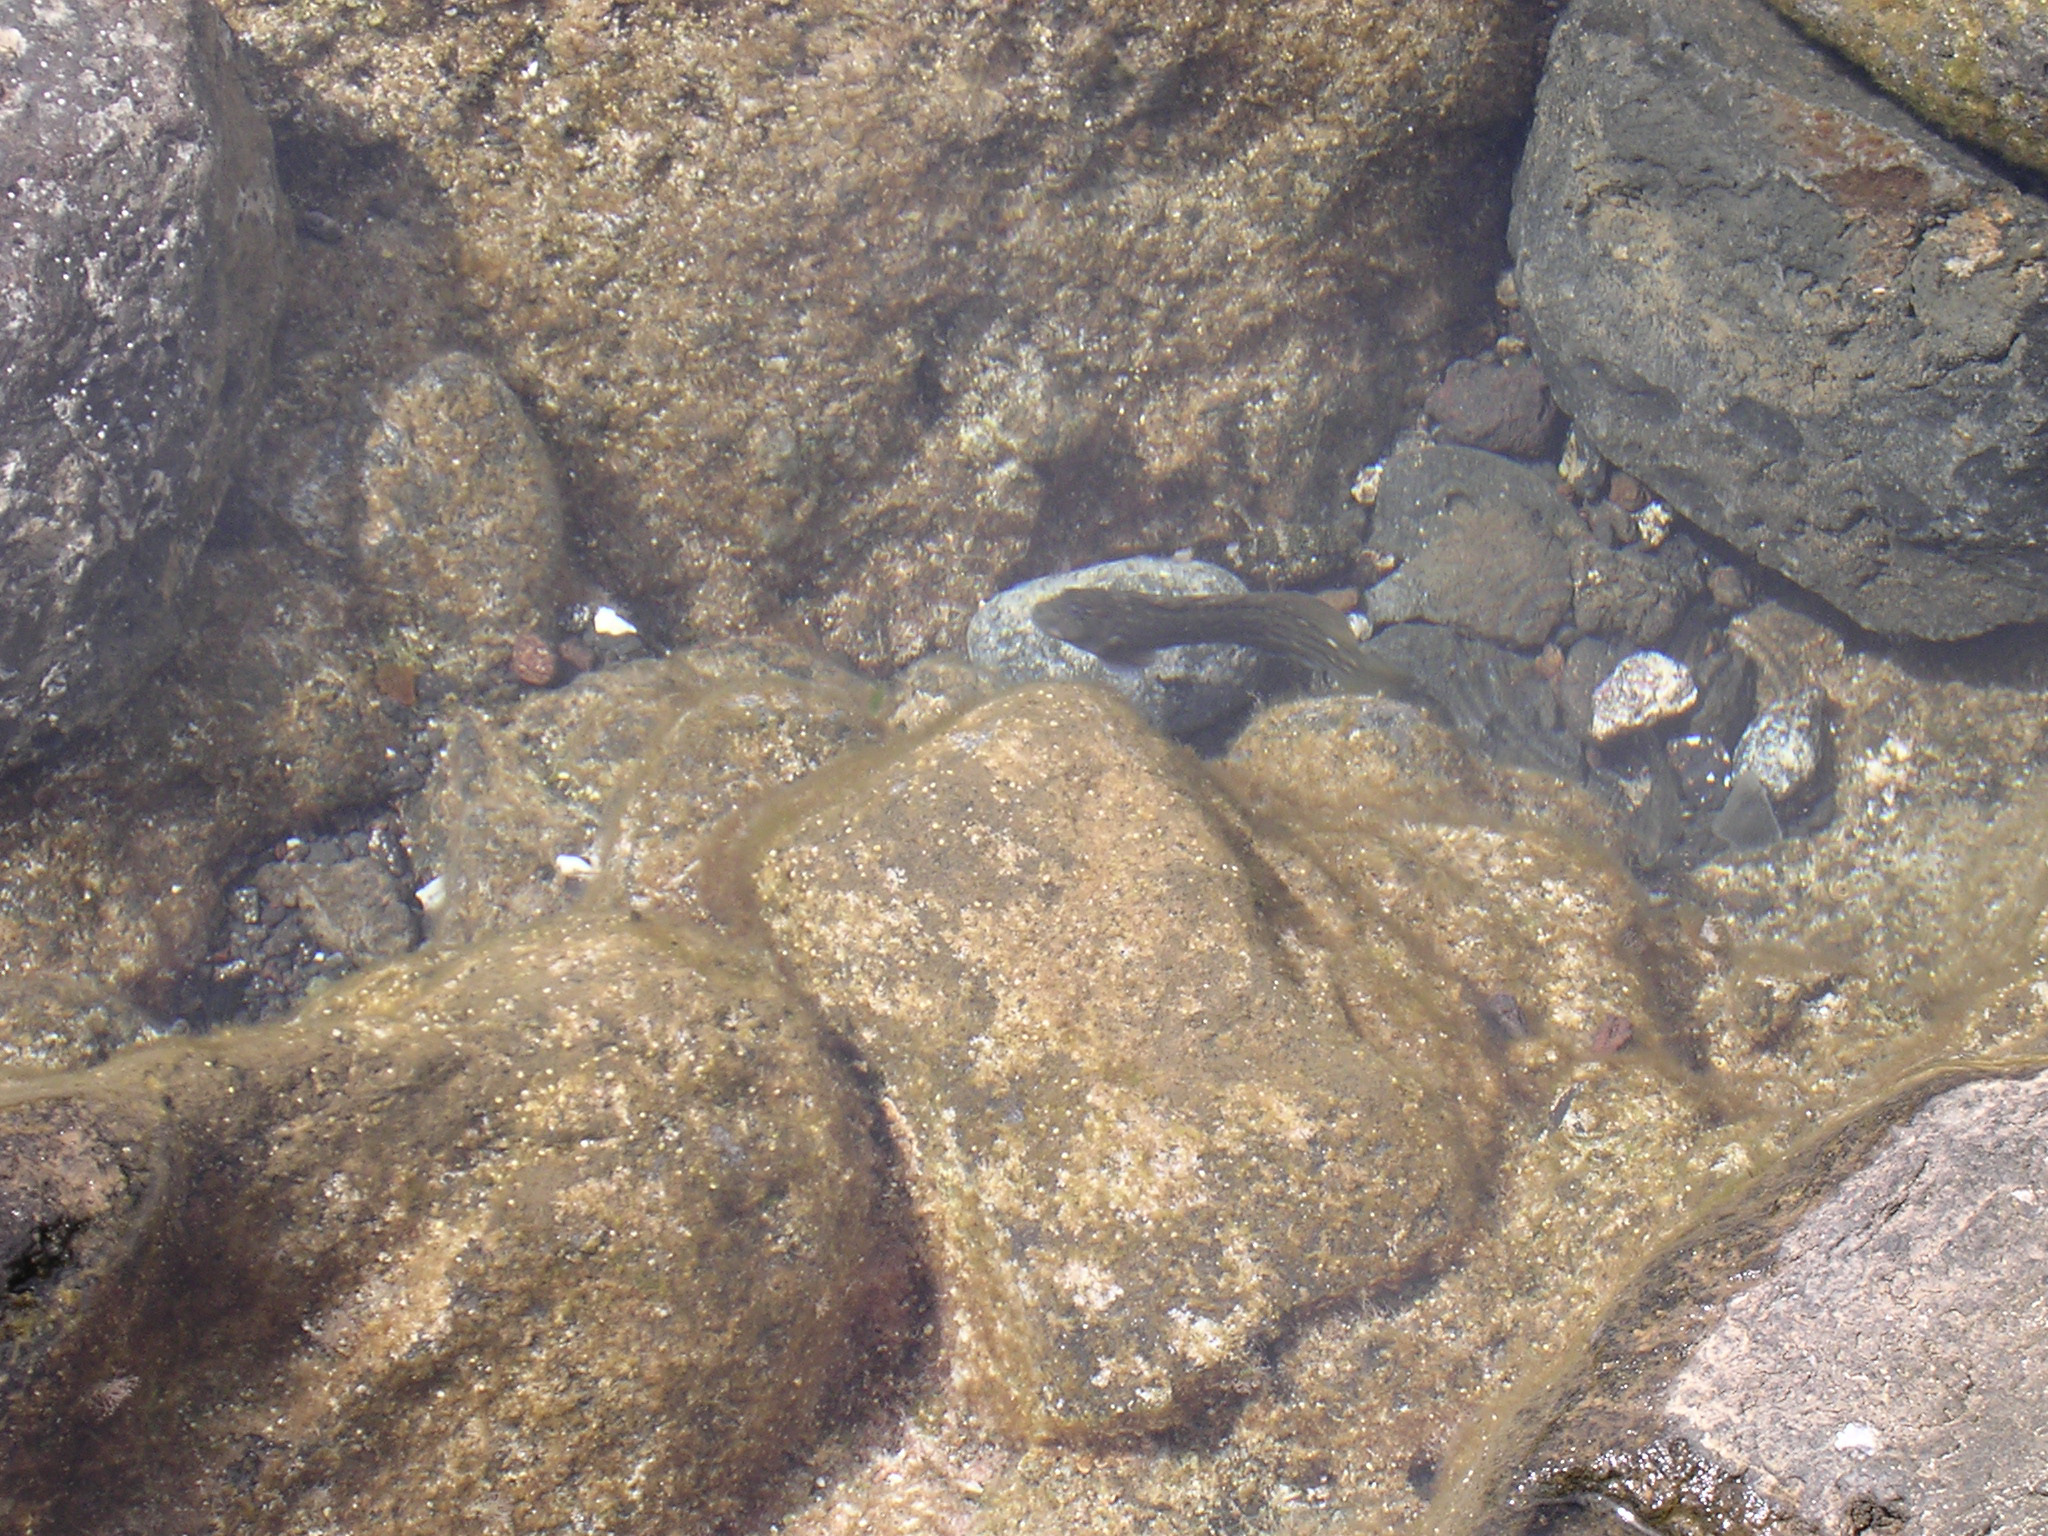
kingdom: Animalia
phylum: Chordata
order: Perciformes
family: Blenniidae
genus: Parablennius
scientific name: Parablennius parvicornis
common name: Rock-pool blenny
